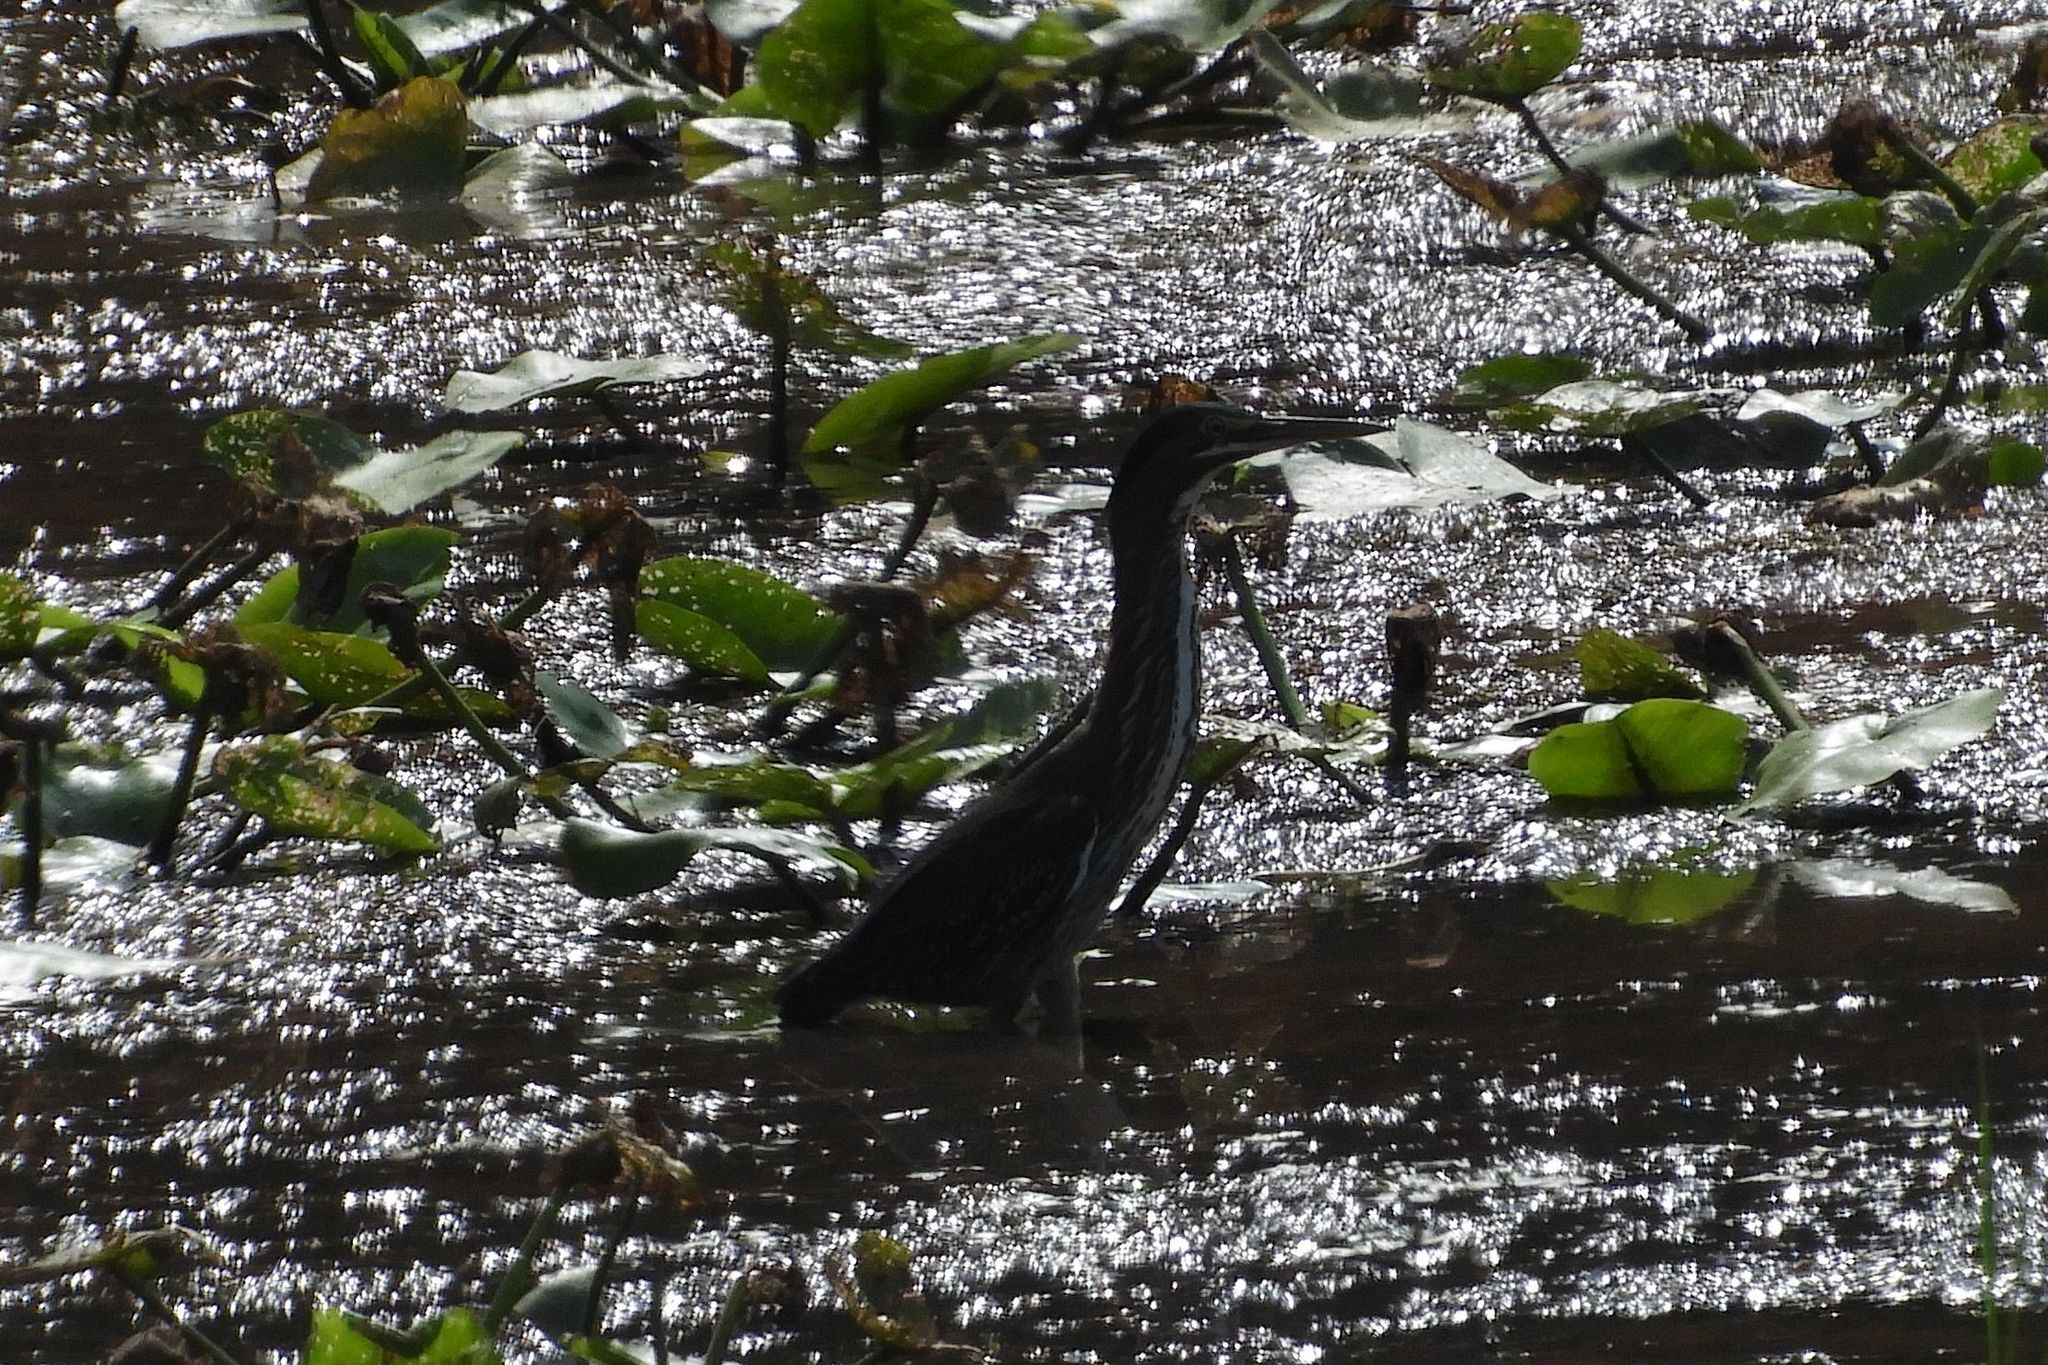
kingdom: Animalia
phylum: Chordata
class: Aves
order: Pelecaniformes
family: Ardeidae
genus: Butorides
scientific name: Butorides virescens
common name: Green heron
